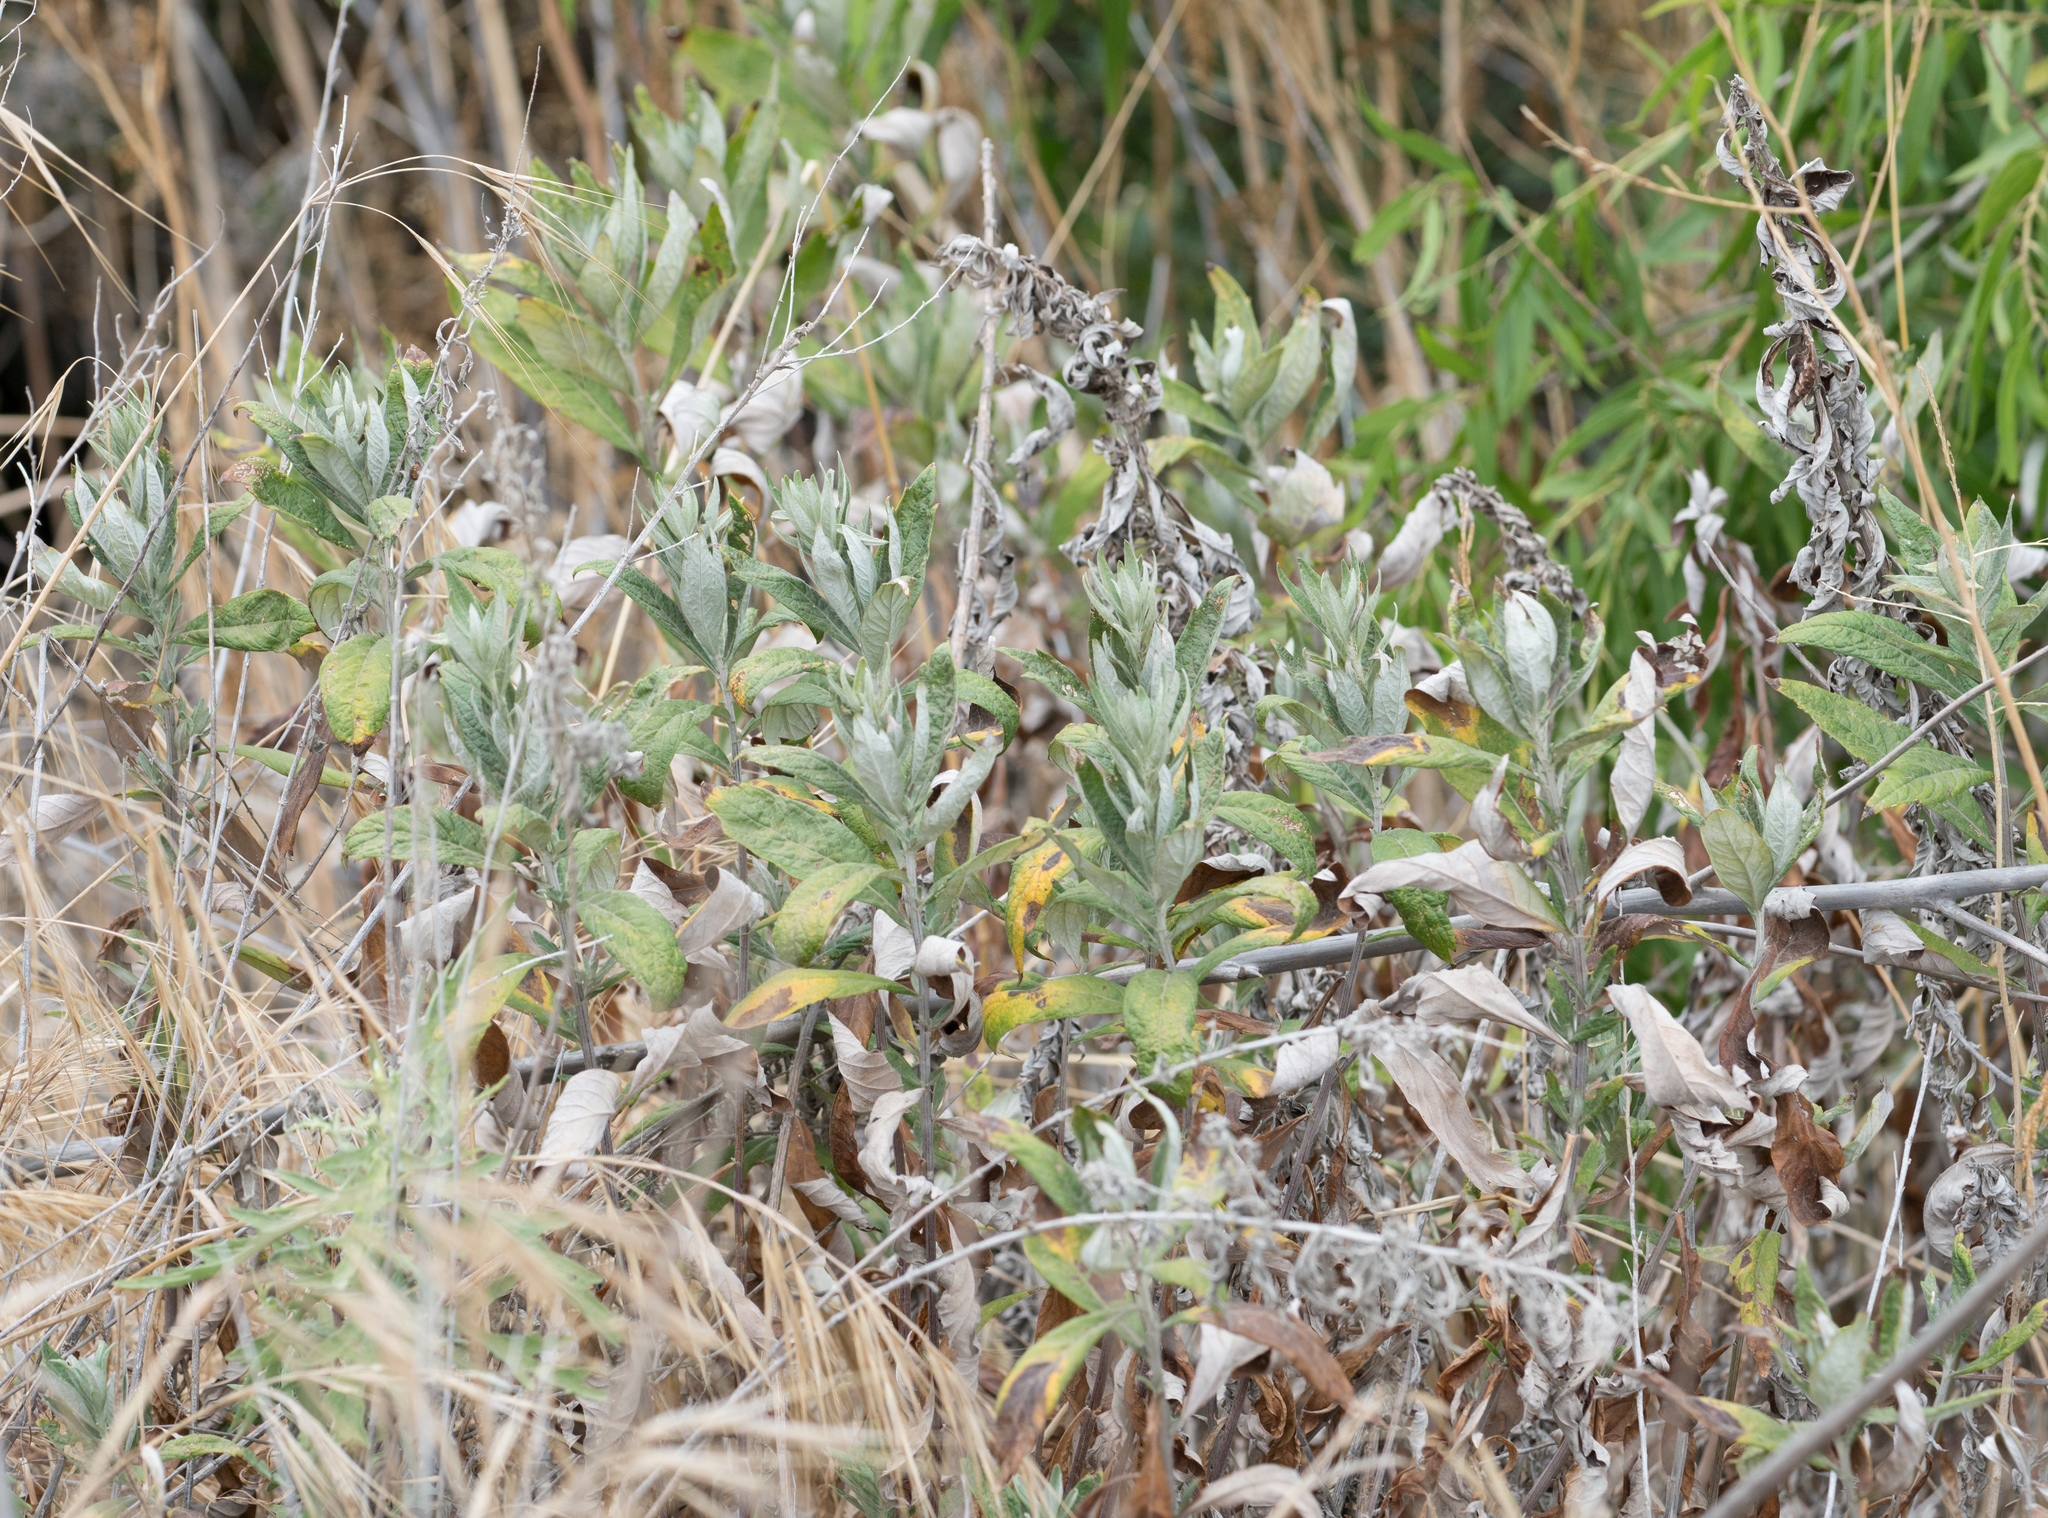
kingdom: Plantae
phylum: Tracheophyta
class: Magnoliopsida
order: Asterales
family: Asteraceae
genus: Artemisia
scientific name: Artemisia douglasiana
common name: Northwest mugwort
